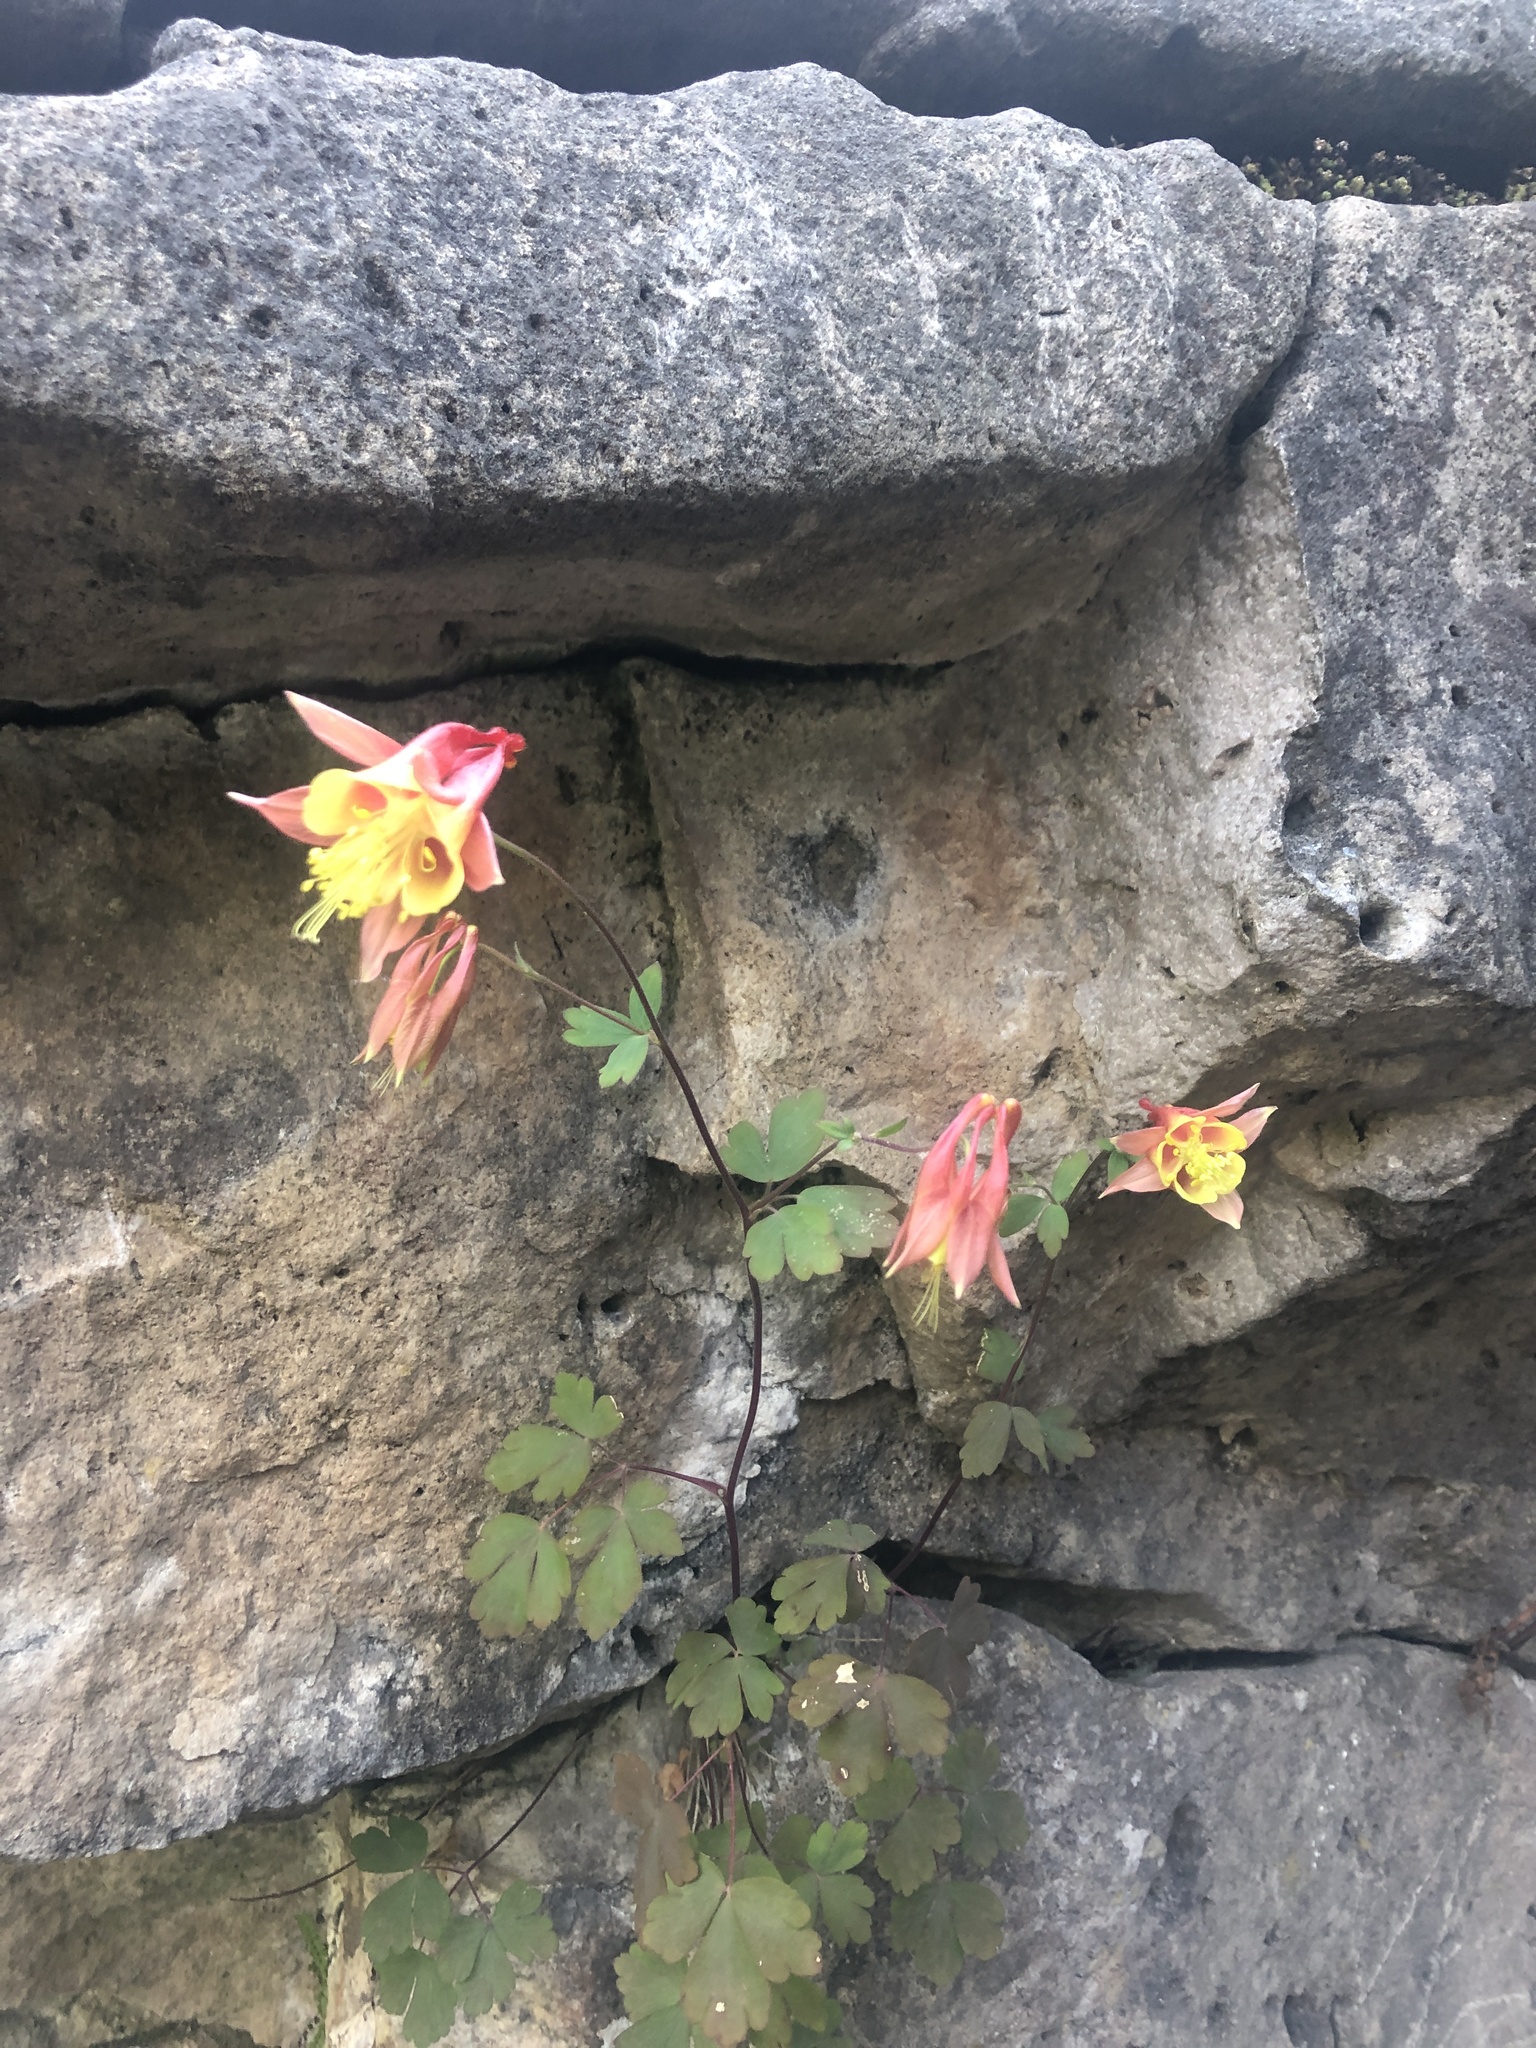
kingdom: Plantae
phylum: Tracheophyta
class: Magnoliopsida
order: Ranunculales
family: Ranunculaceae
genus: Aquilegia
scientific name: Aquilegia canadensis
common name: American columbine
